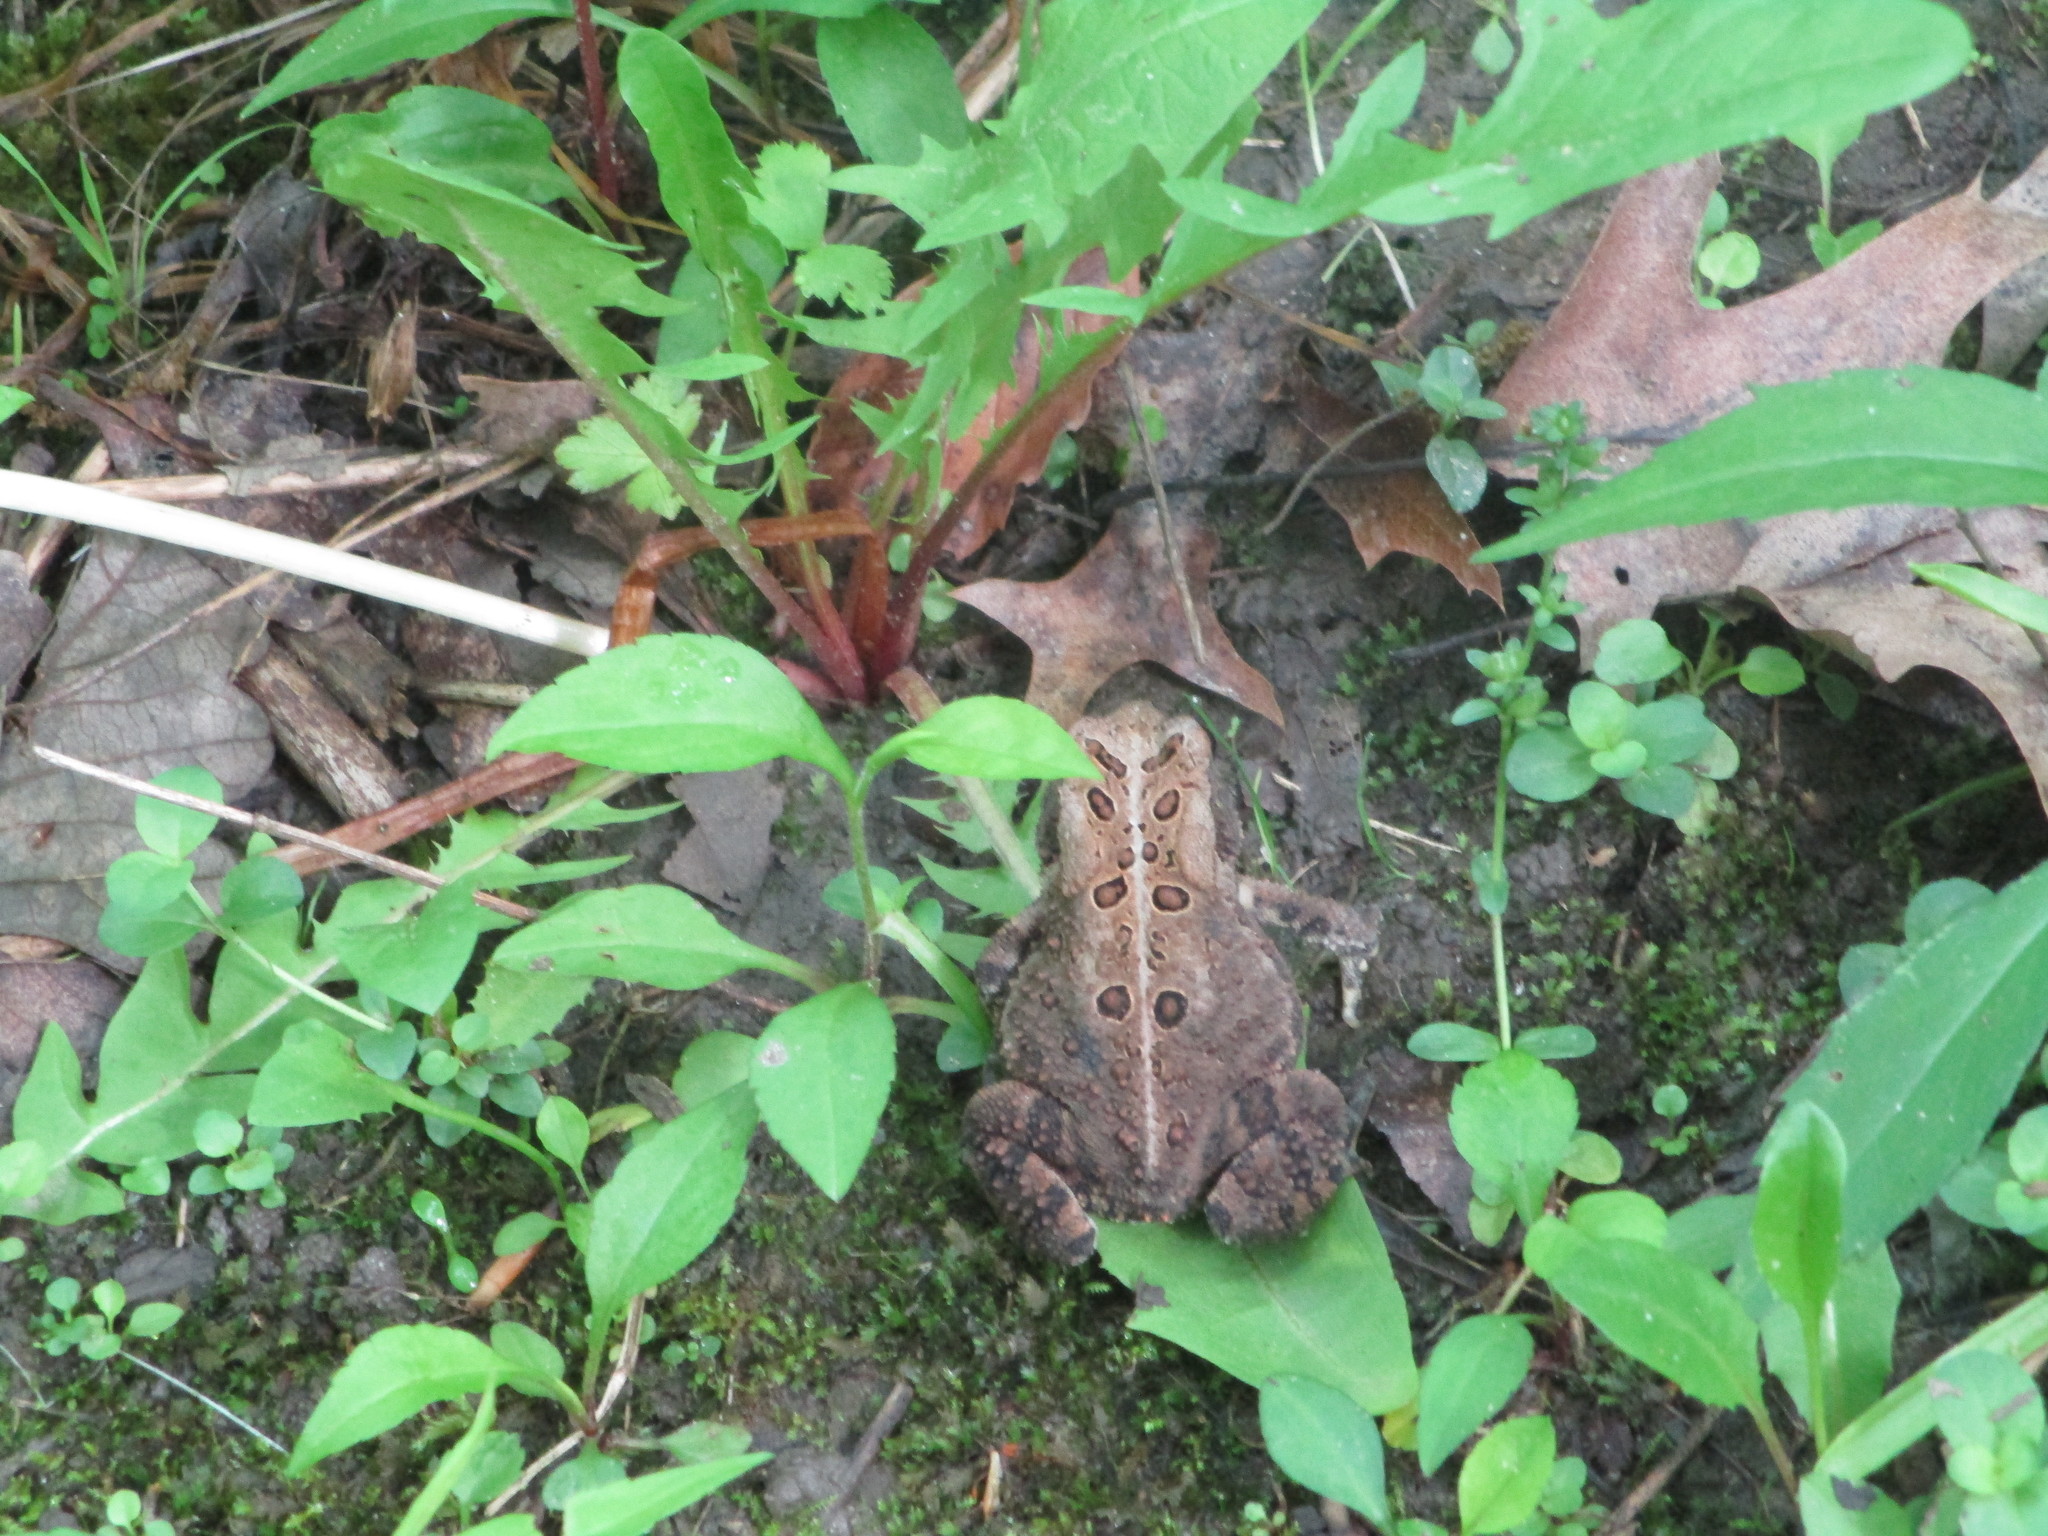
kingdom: Animalia
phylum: Chordata
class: Amphibia
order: Anura
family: Bufonidae
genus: Anaxyrus
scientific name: Anaxyrus americanus
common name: American toad
